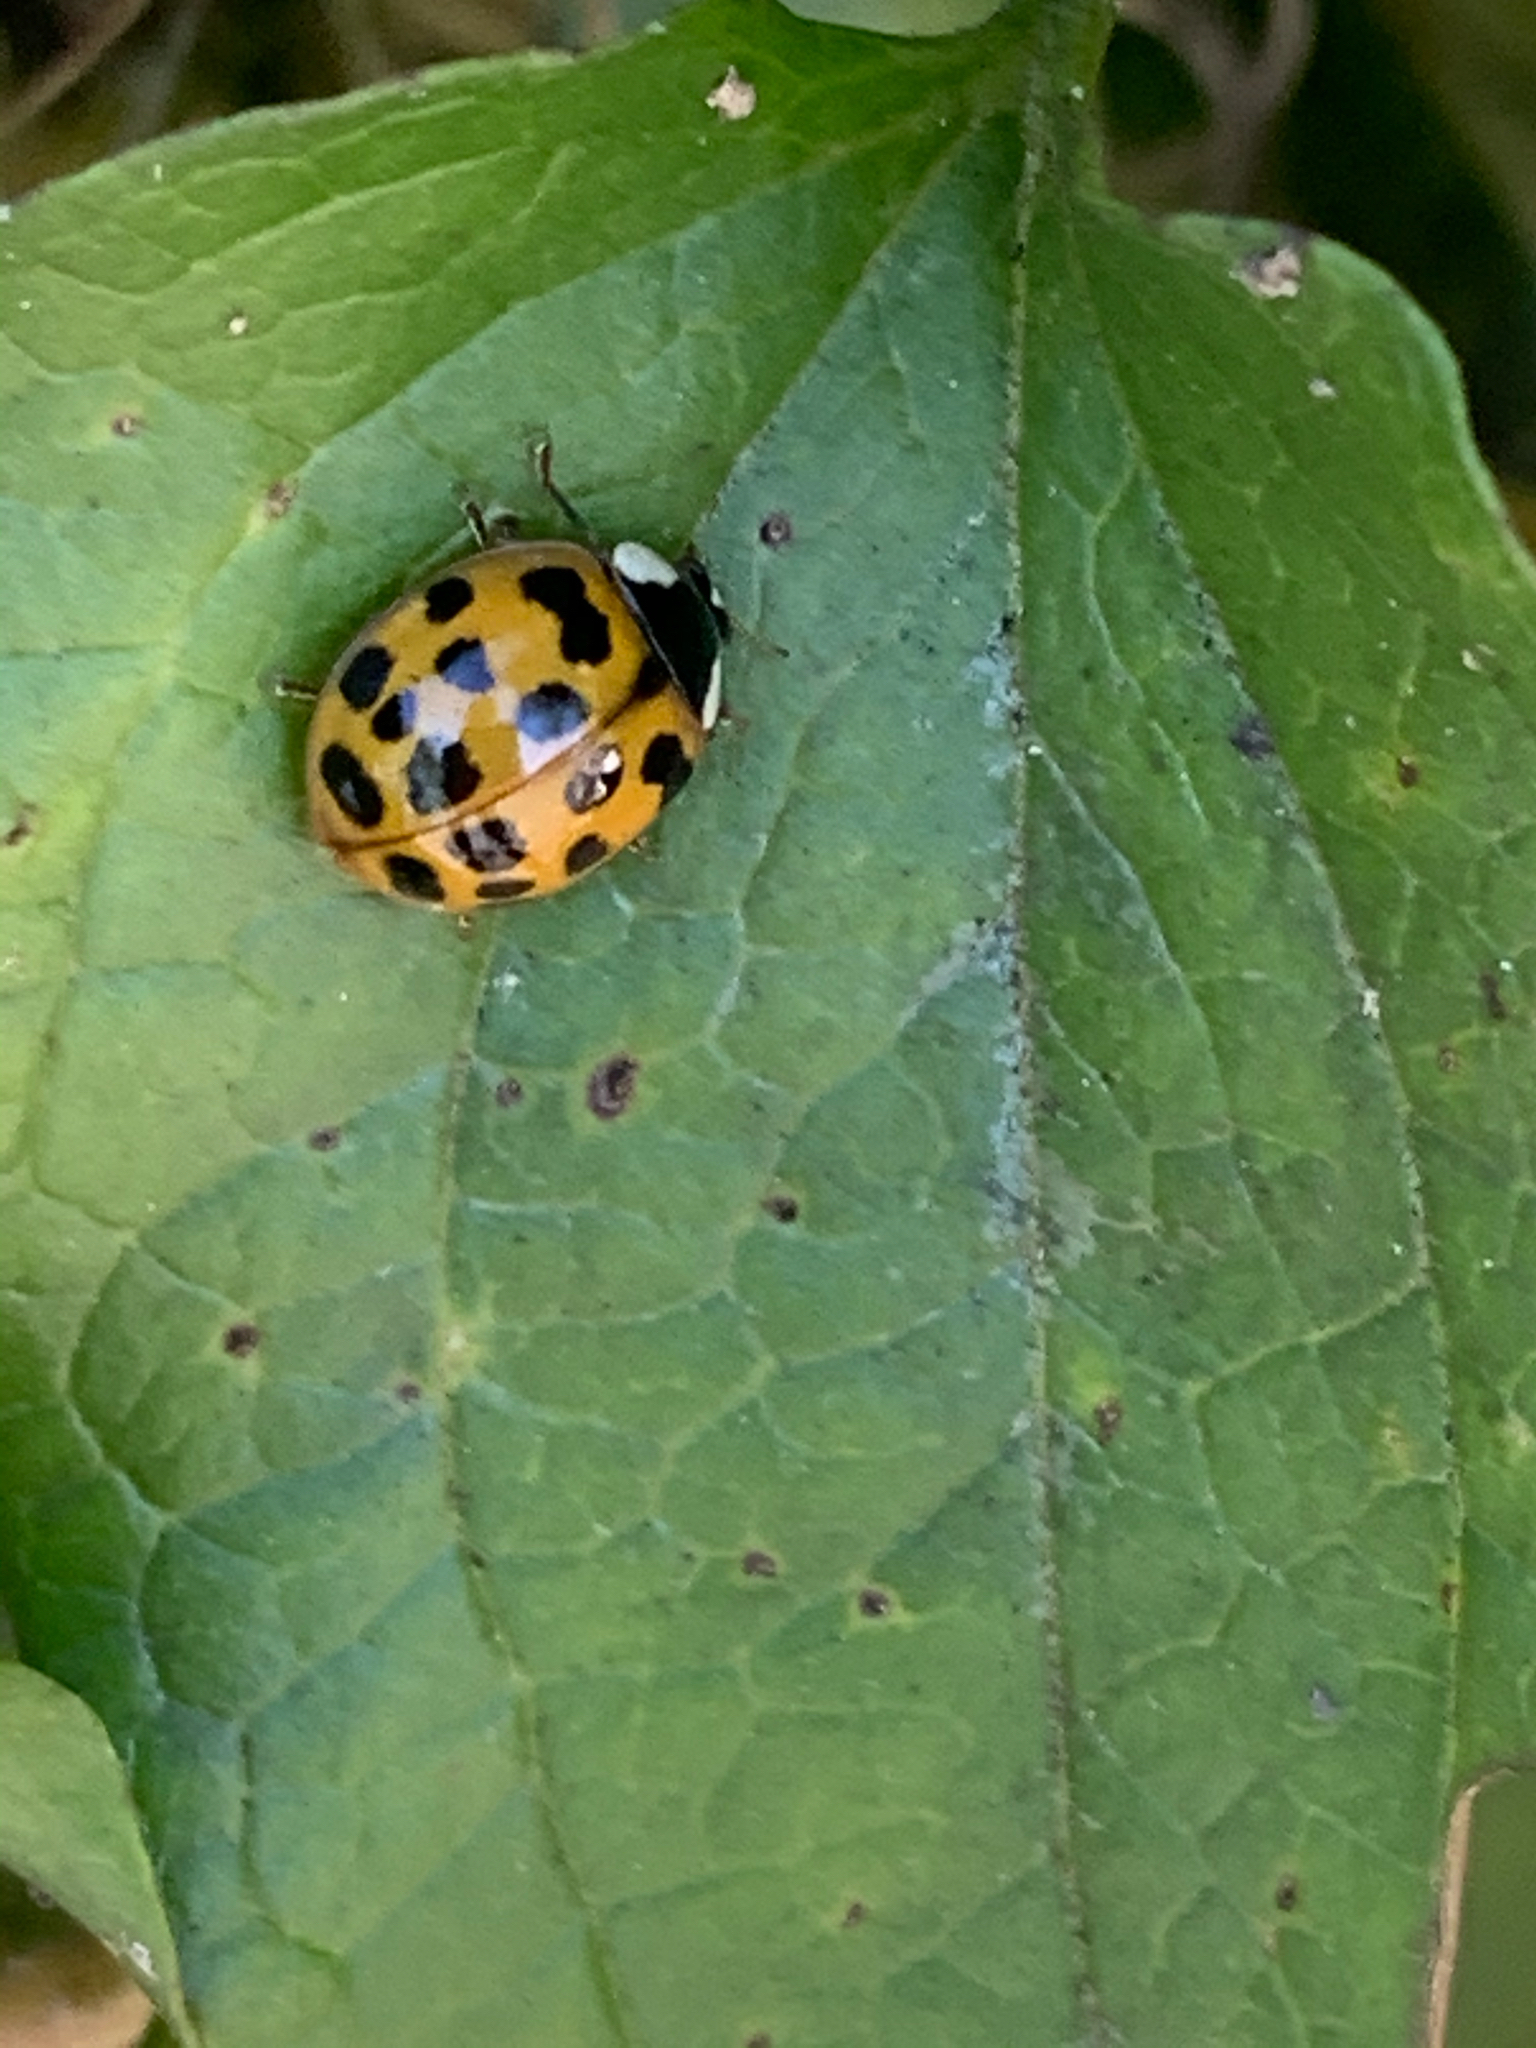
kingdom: Animalia
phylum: Arthropoda
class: Insecta
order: Coleoptera
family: Coccinellidae
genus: Harmonia
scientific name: Harmonia axyridis
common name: Harlequin ladybird
